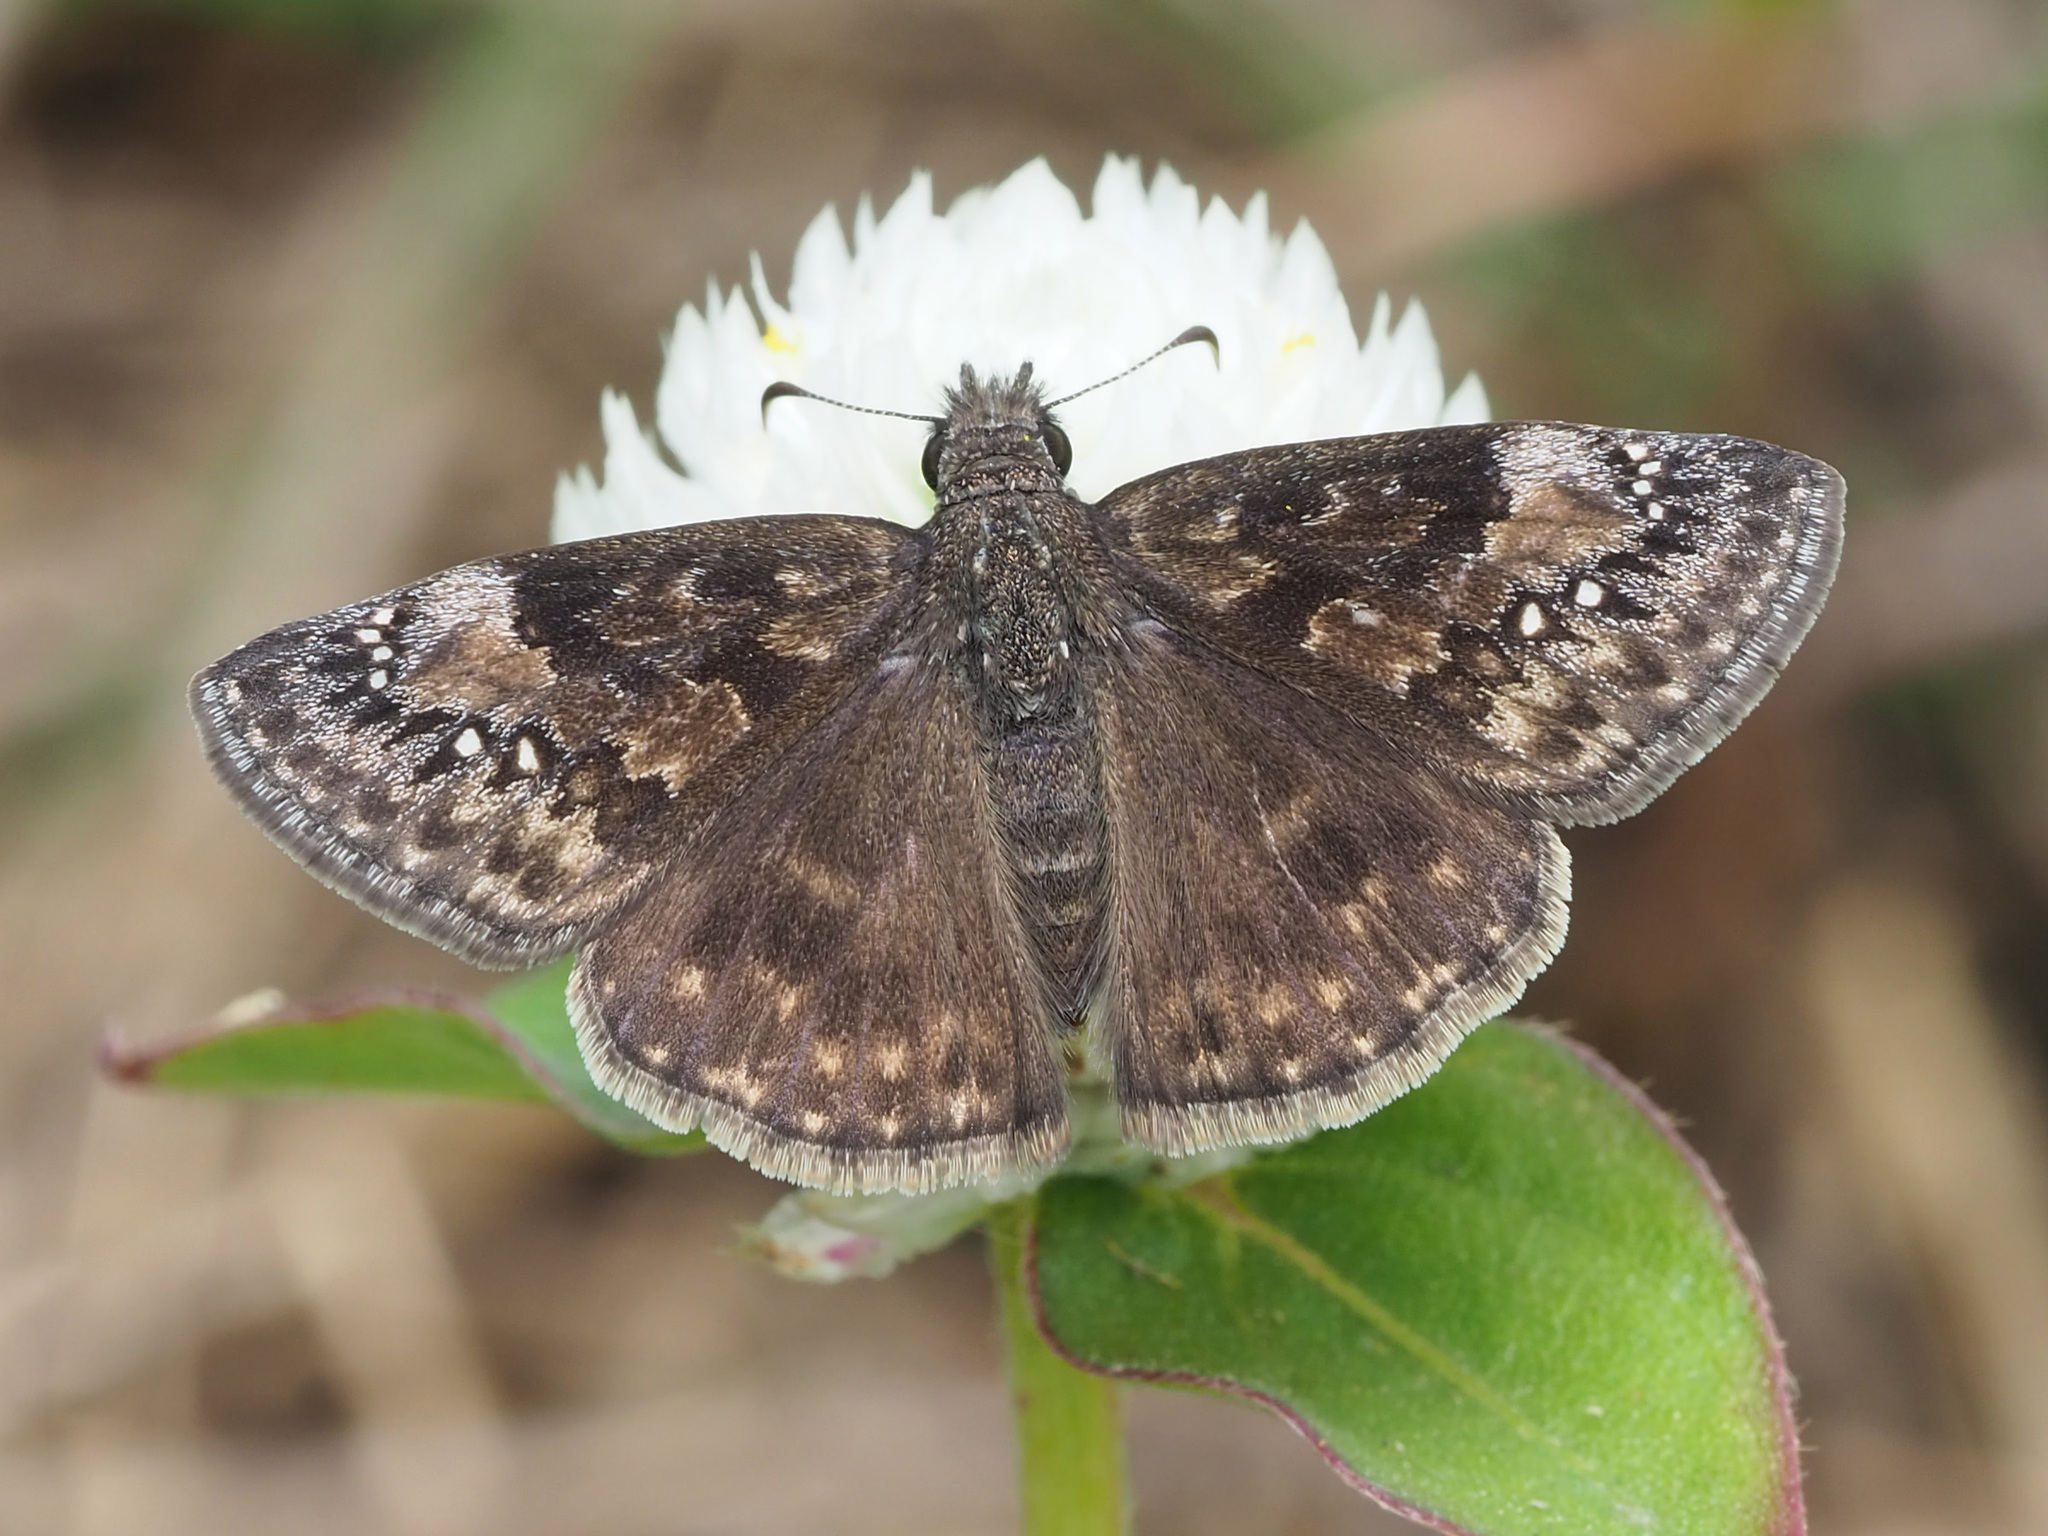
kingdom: Animalia
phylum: Arthropoda
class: Insecta
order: Lepidoptera
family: Hesperiidae
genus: Erynnis
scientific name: Erynnis baptisiae
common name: Wild indigo duskywing
